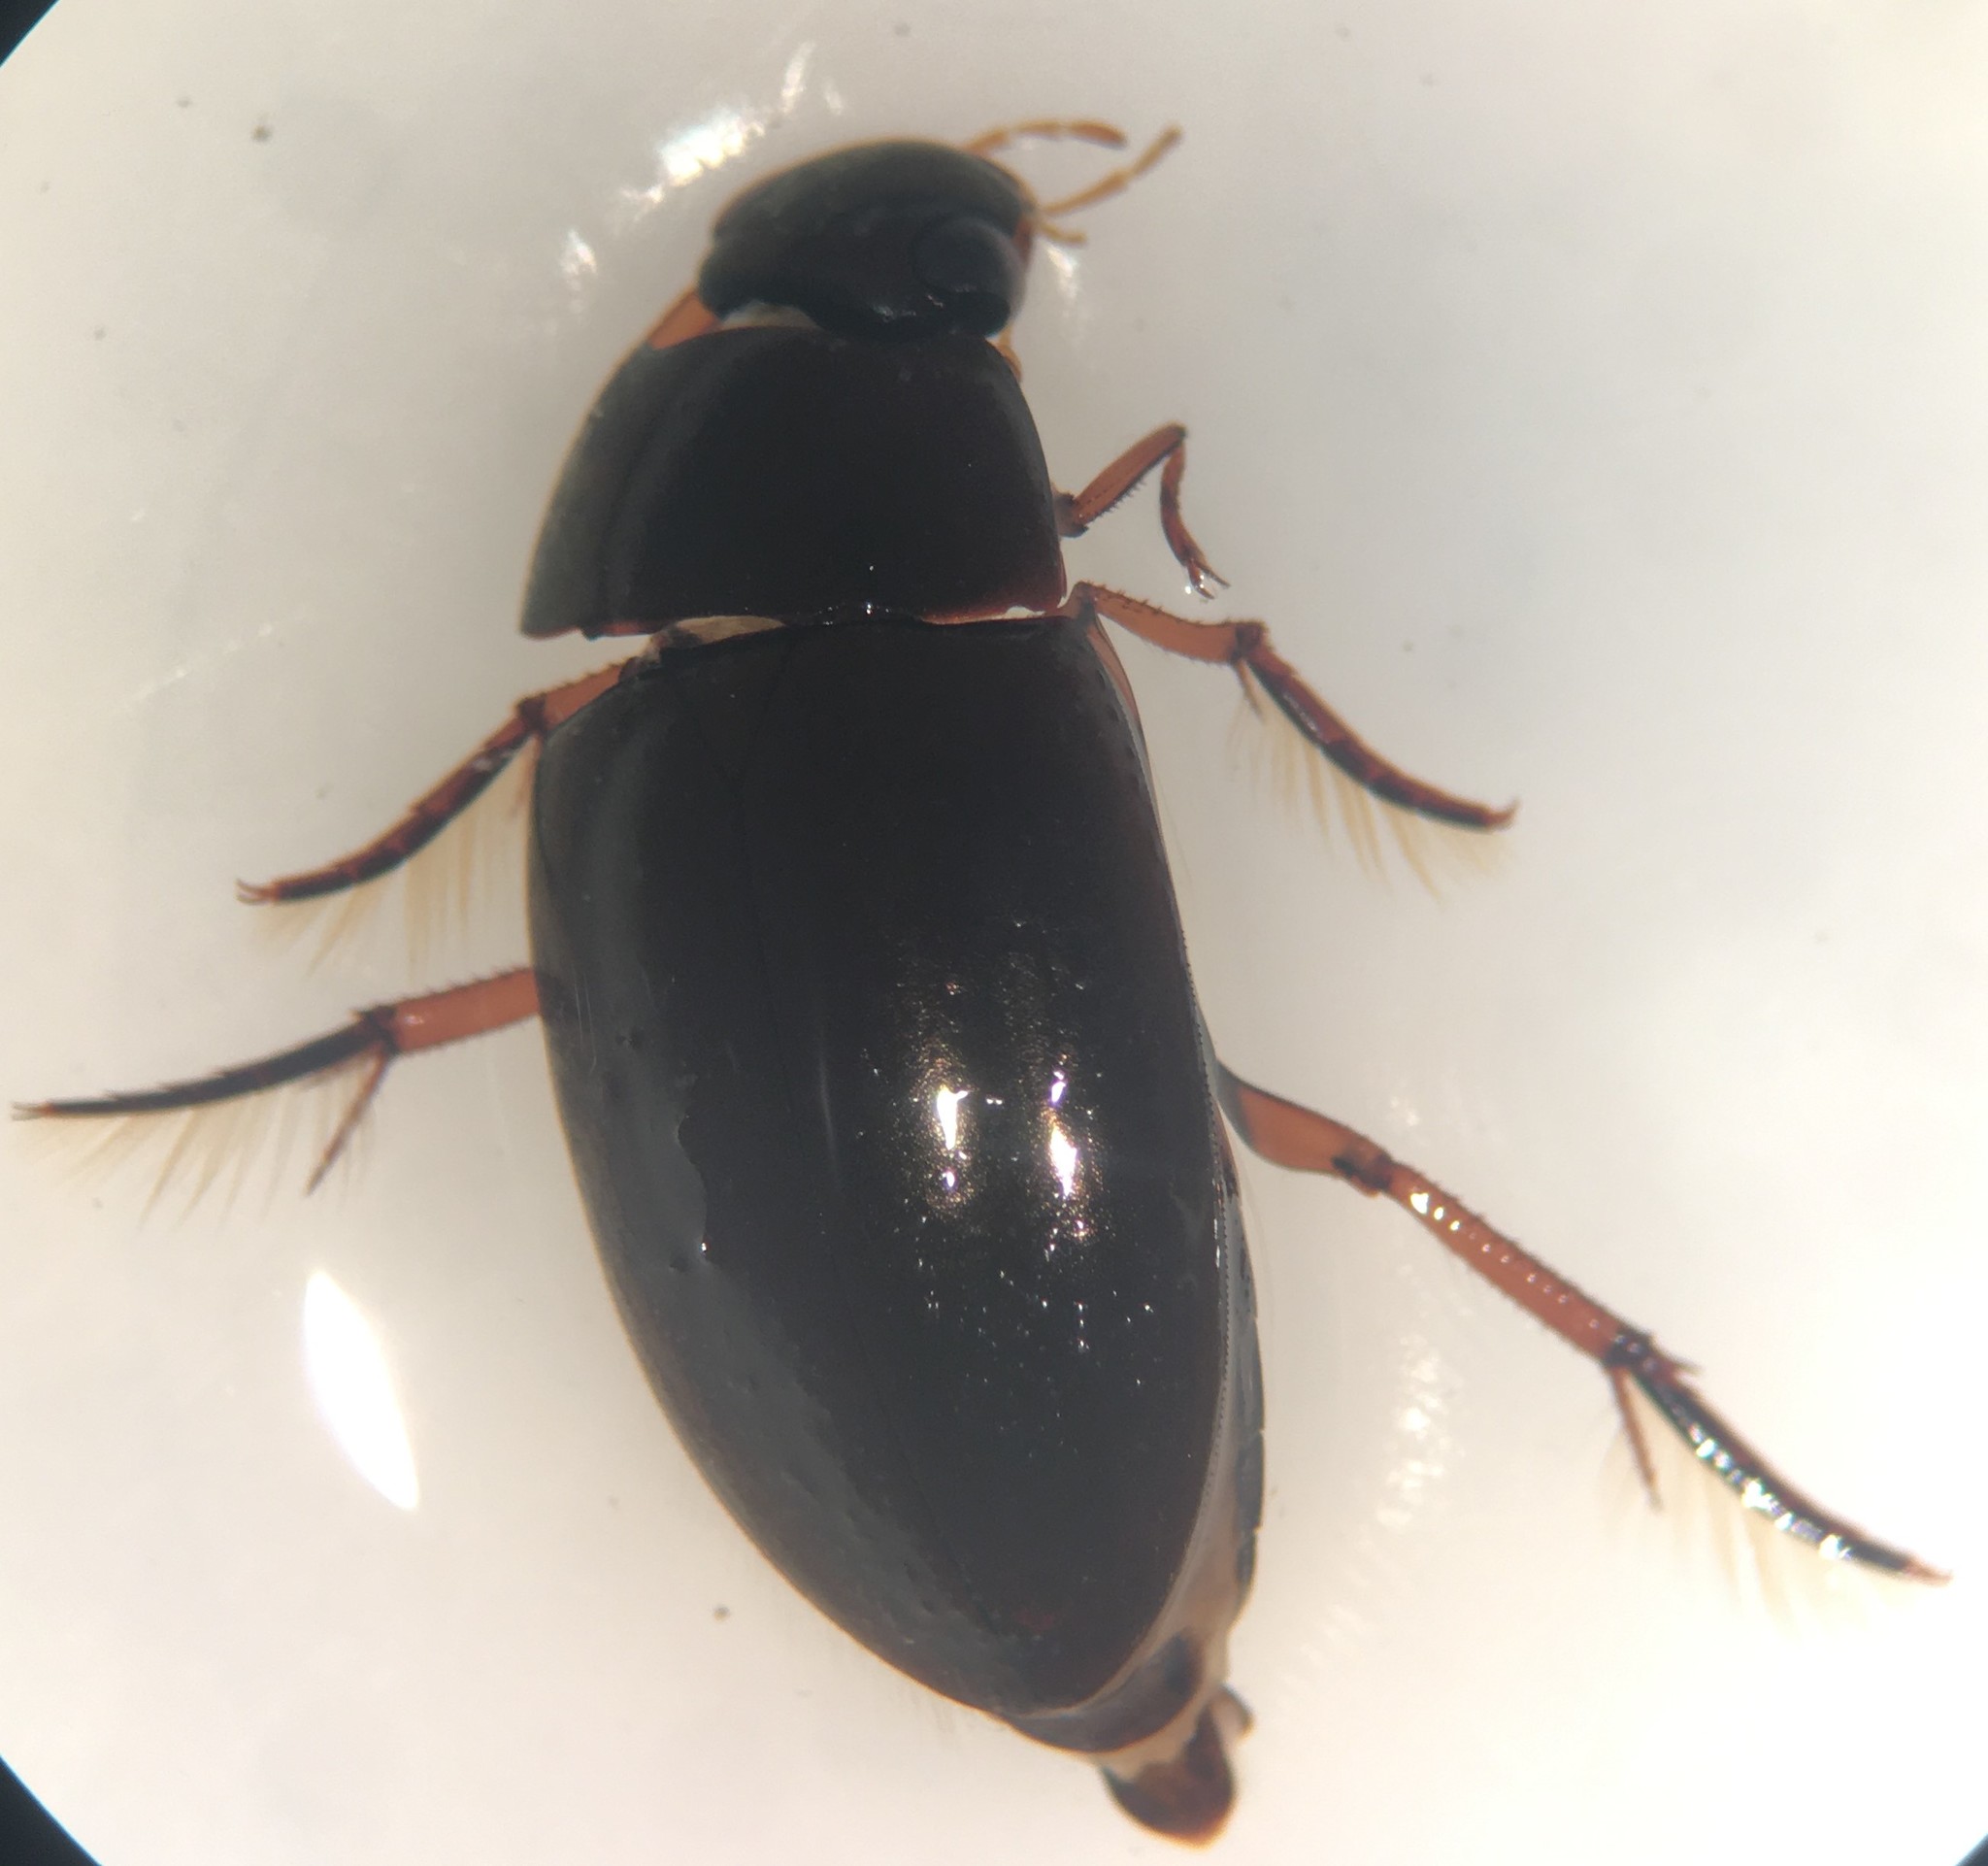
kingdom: Animalia
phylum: Arthropoda
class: Insecta
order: Coleoptera
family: Hydrophilidae
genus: Tropisternus
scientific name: Tropisternus quadristriatus
